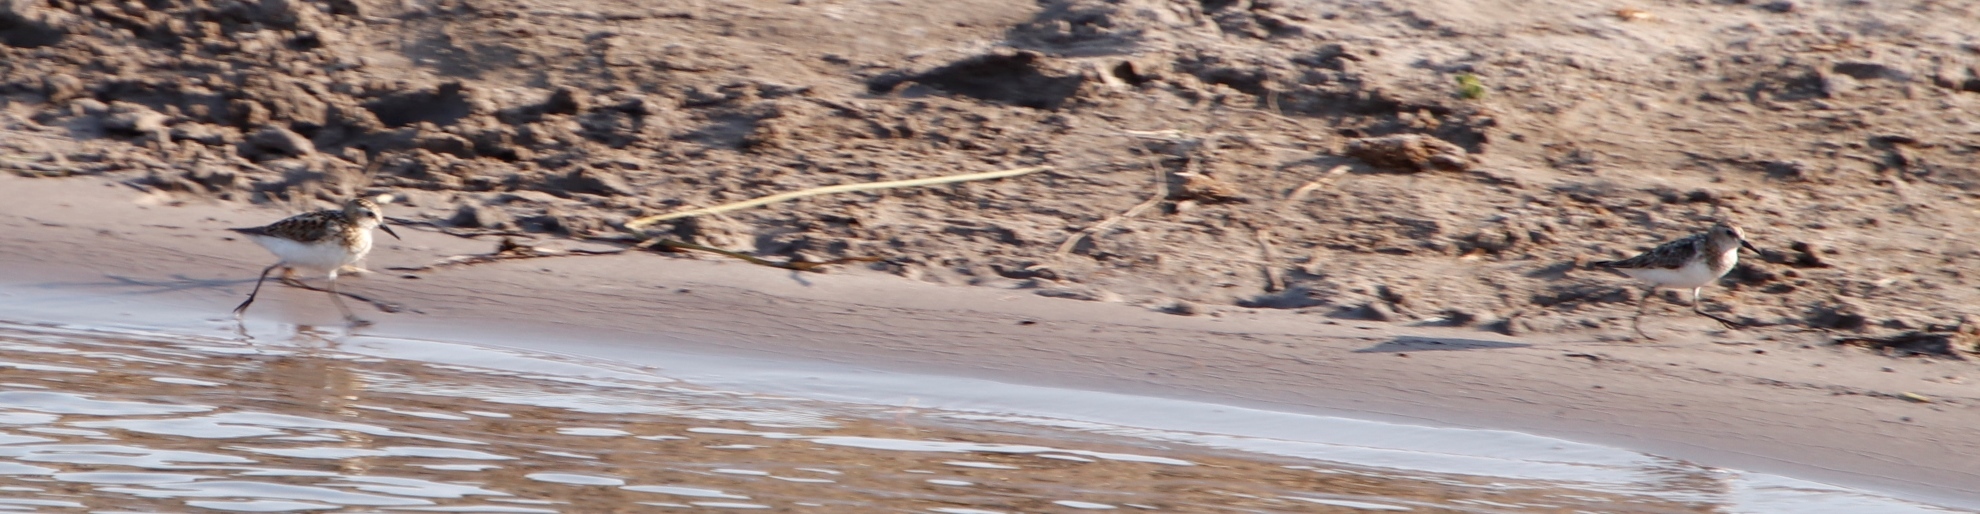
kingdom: Animalia
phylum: Chordata
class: Aves
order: Charadriiformes
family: Scolopacidae
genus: Calidris
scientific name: Calidris minuta
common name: Little stint
